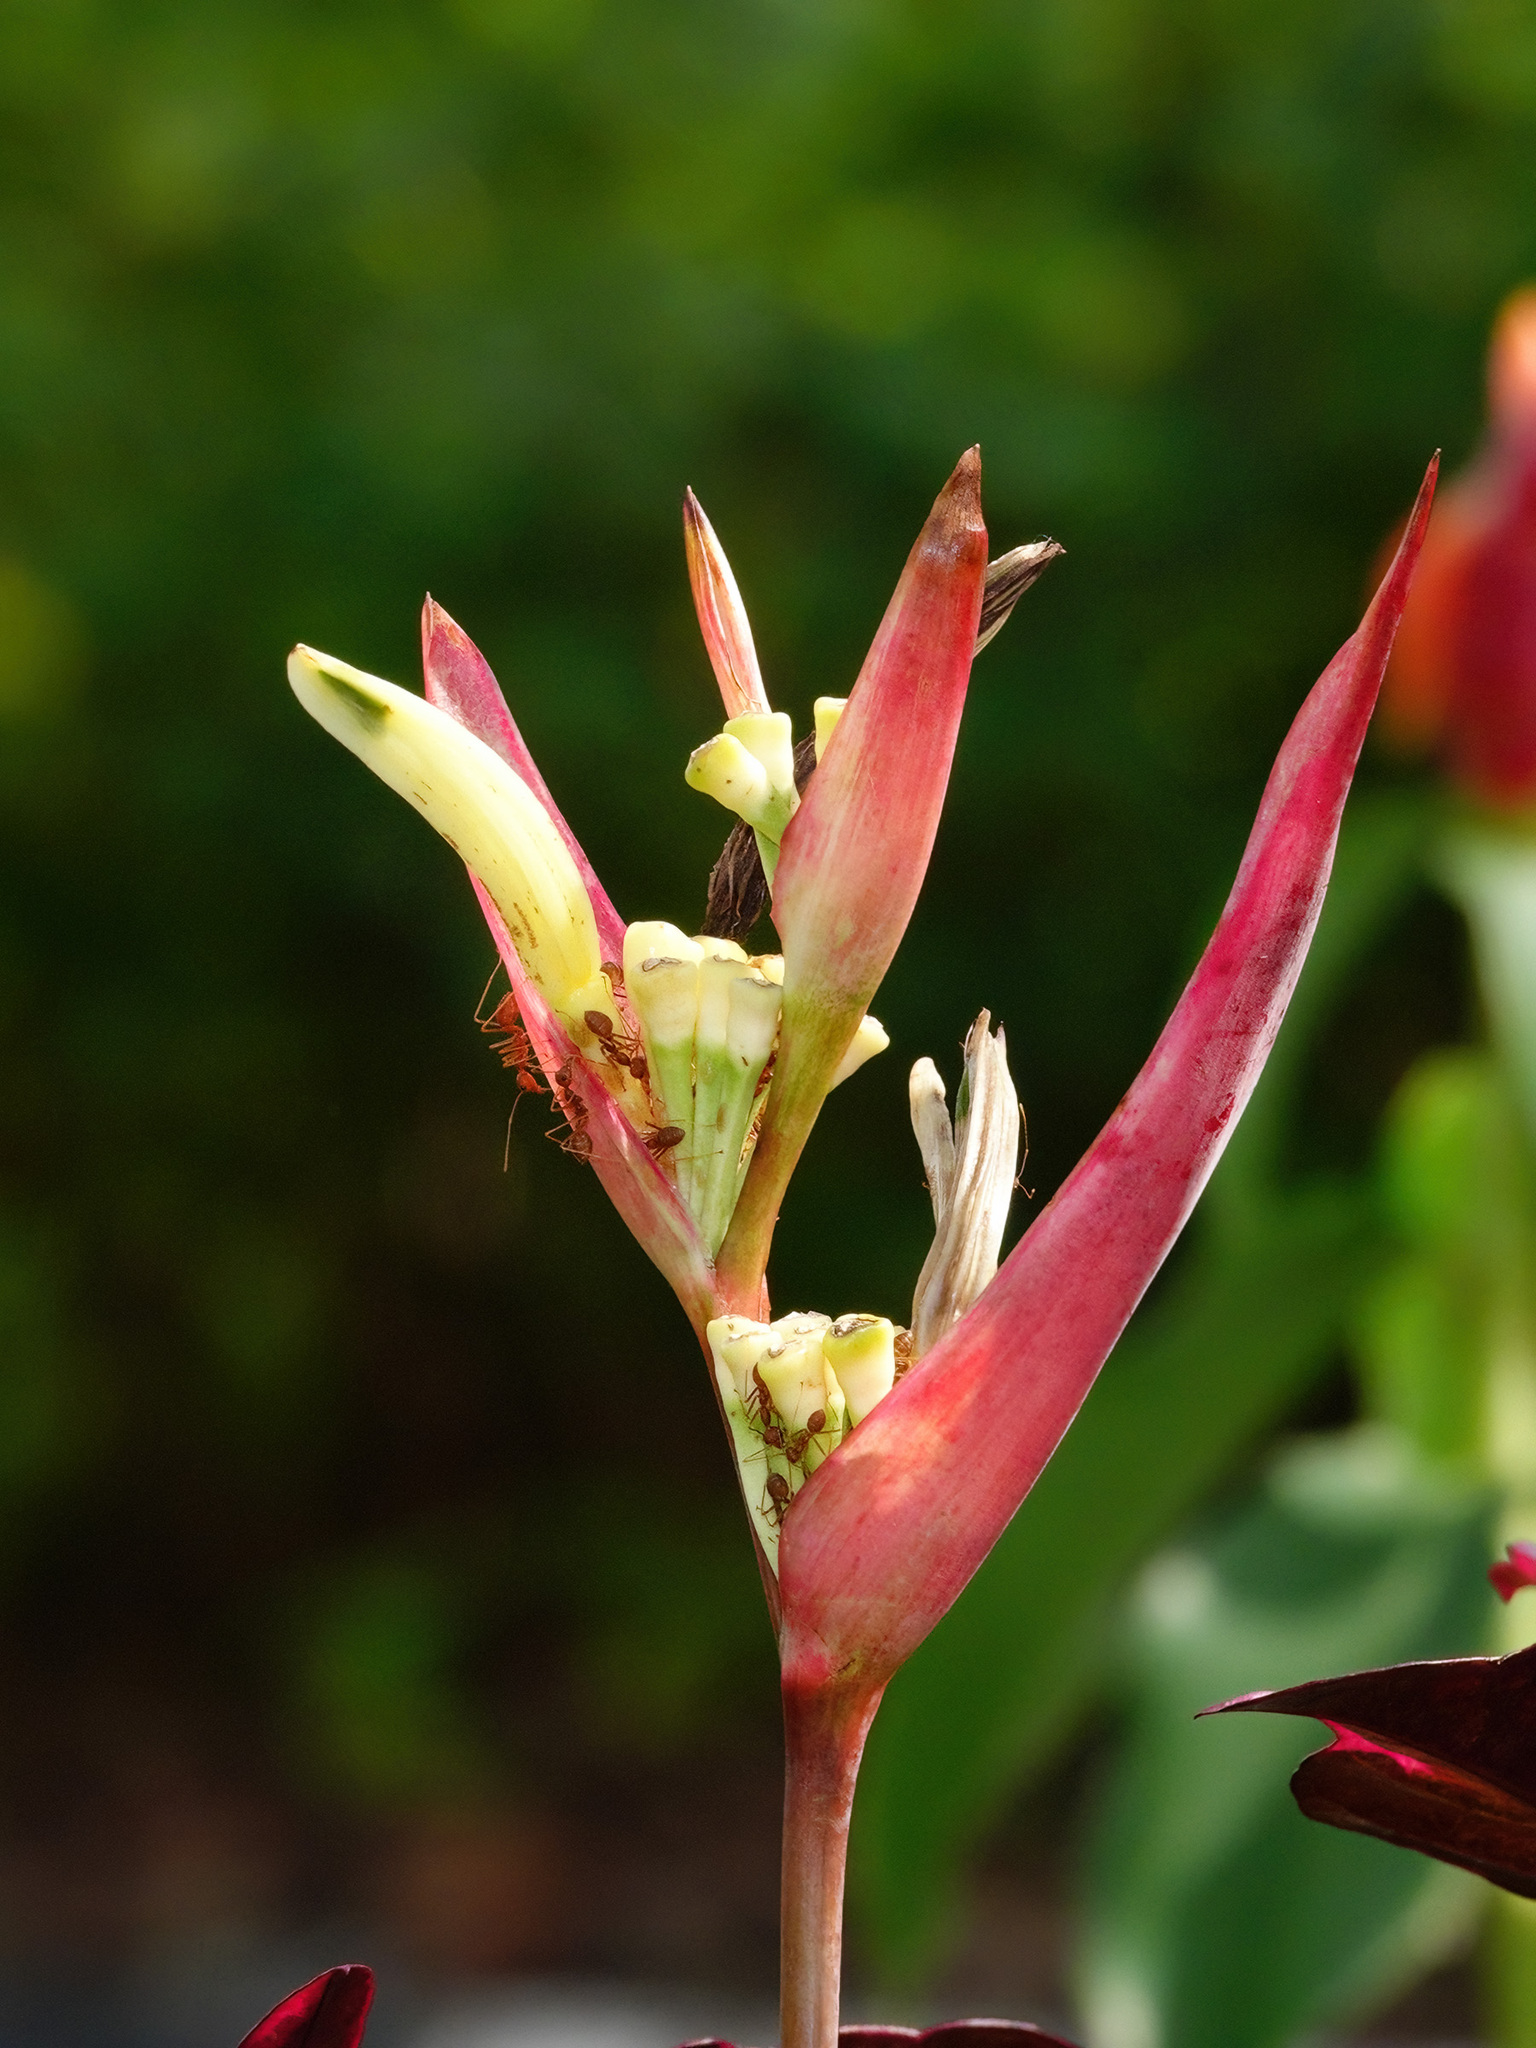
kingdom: Animalia
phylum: Arthropoda
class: Insecta
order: Hymenoptera
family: Formicidae
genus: Oecophylla
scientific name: Oecophylla smaragdina
